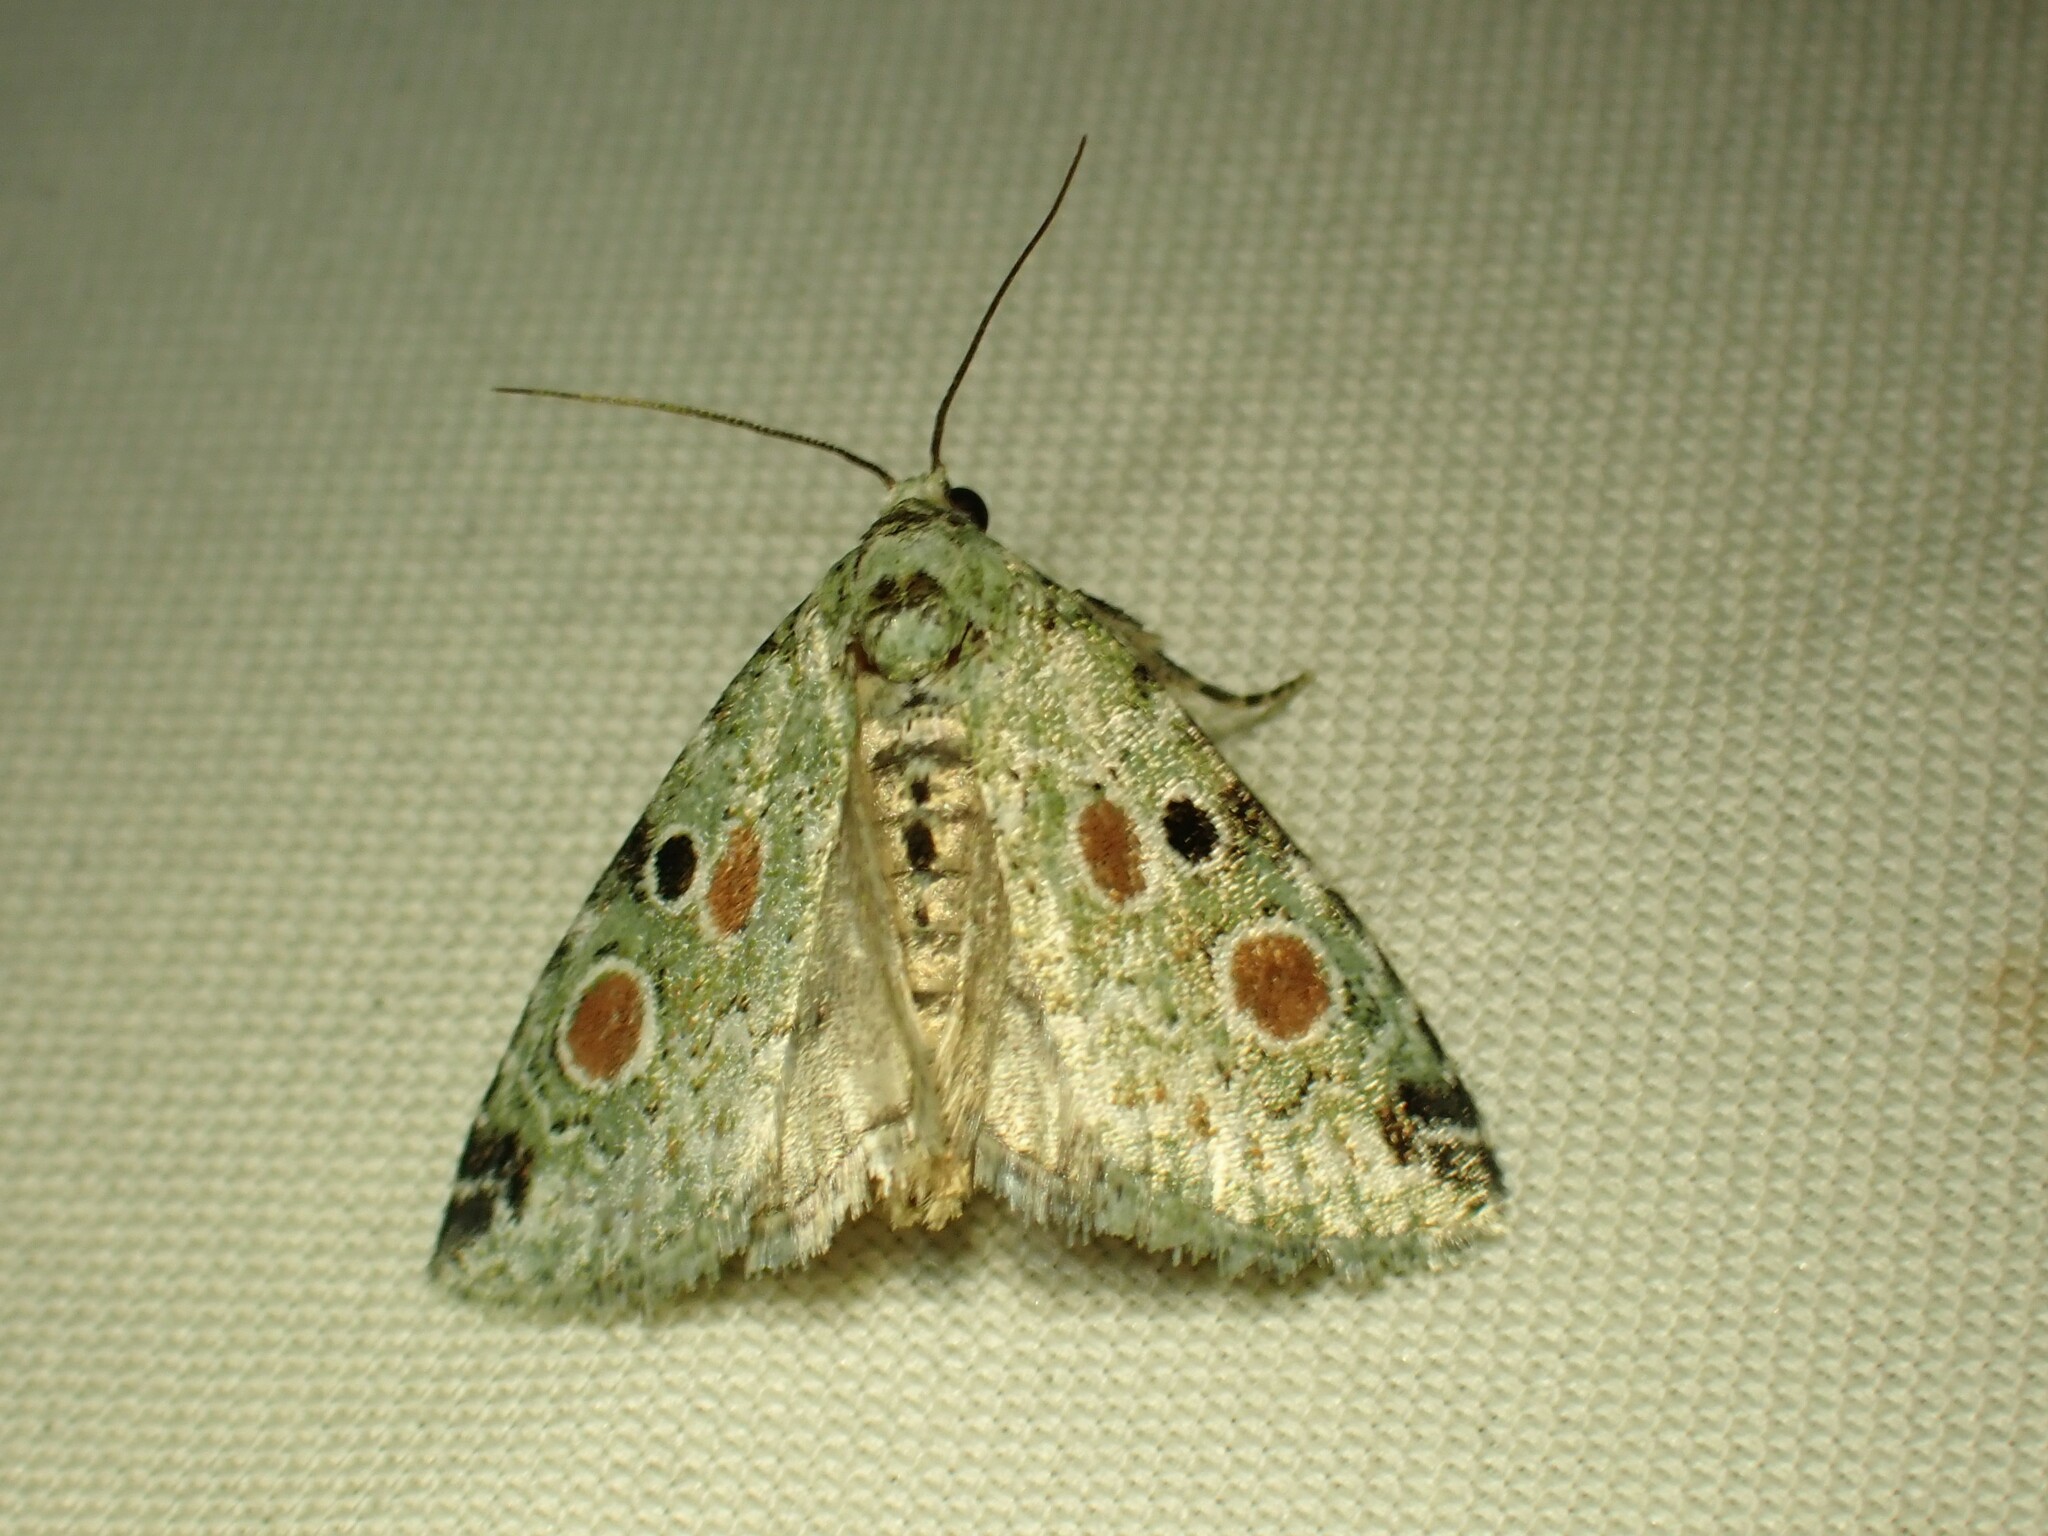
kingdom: Animalia
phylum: Arthropoda
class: Insecta
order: Lepidoptera
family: Noctuidae
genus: Maliattha
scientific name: Maliattha concinnimacula
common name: Red-spotted glyph
